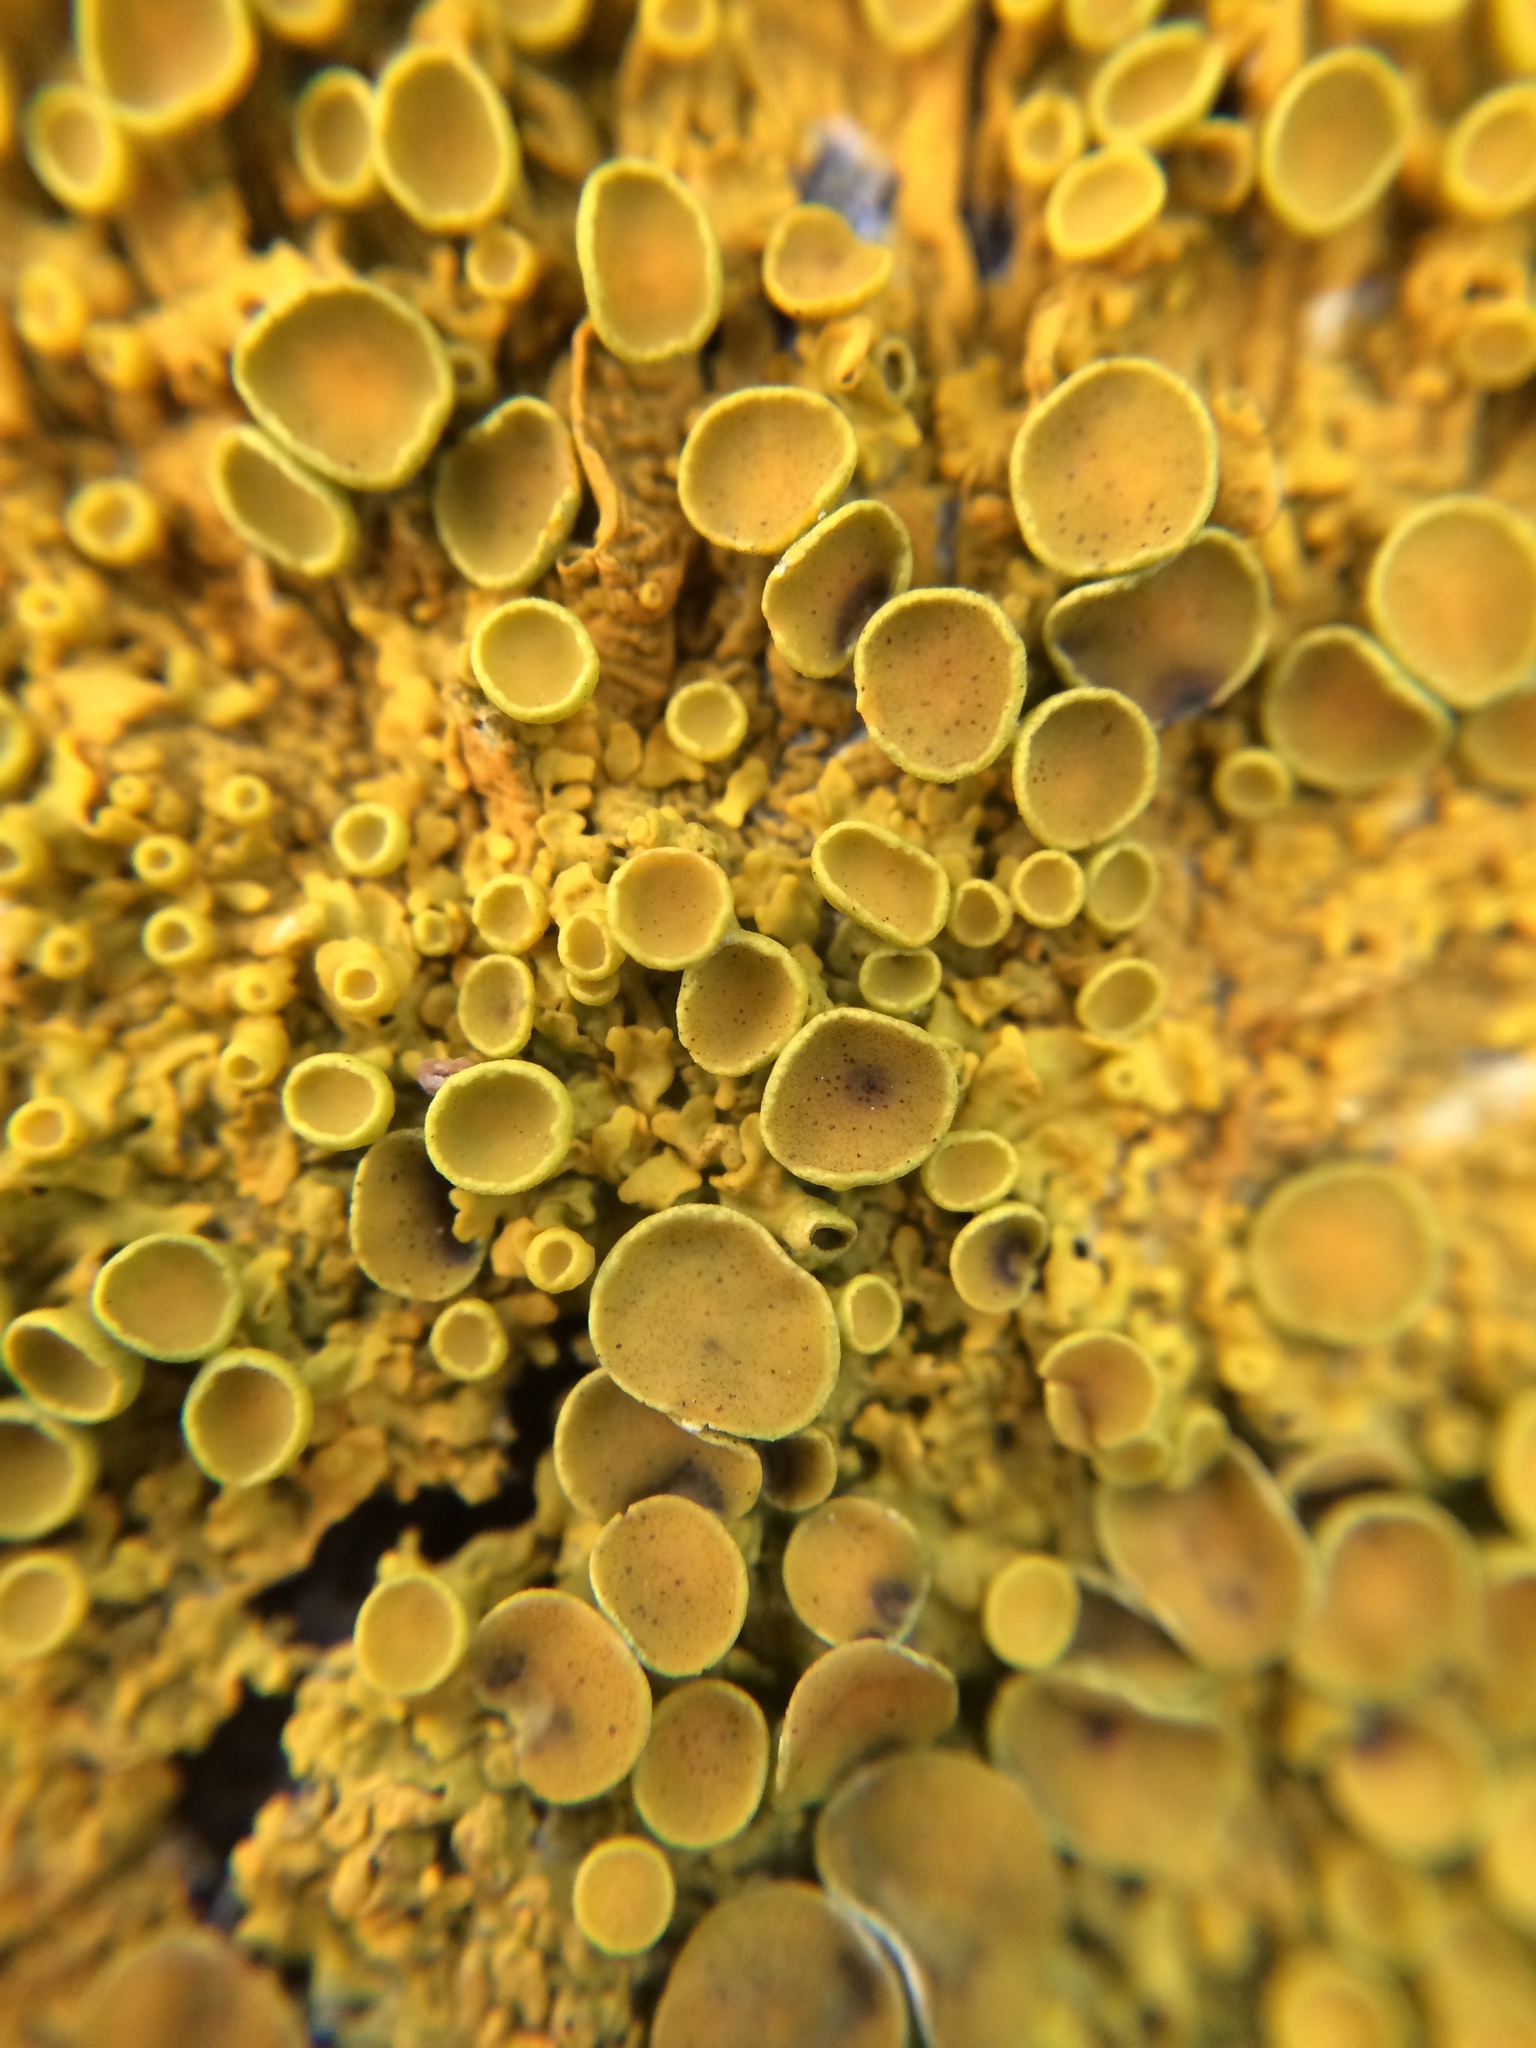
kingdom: Fungi
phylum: Ascomycota
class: Lecanoromycetes
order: Teloschistales
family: Teloschistaceae
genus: Xanthoria
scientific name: Xanthoria parietina
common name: Common orange lichen
